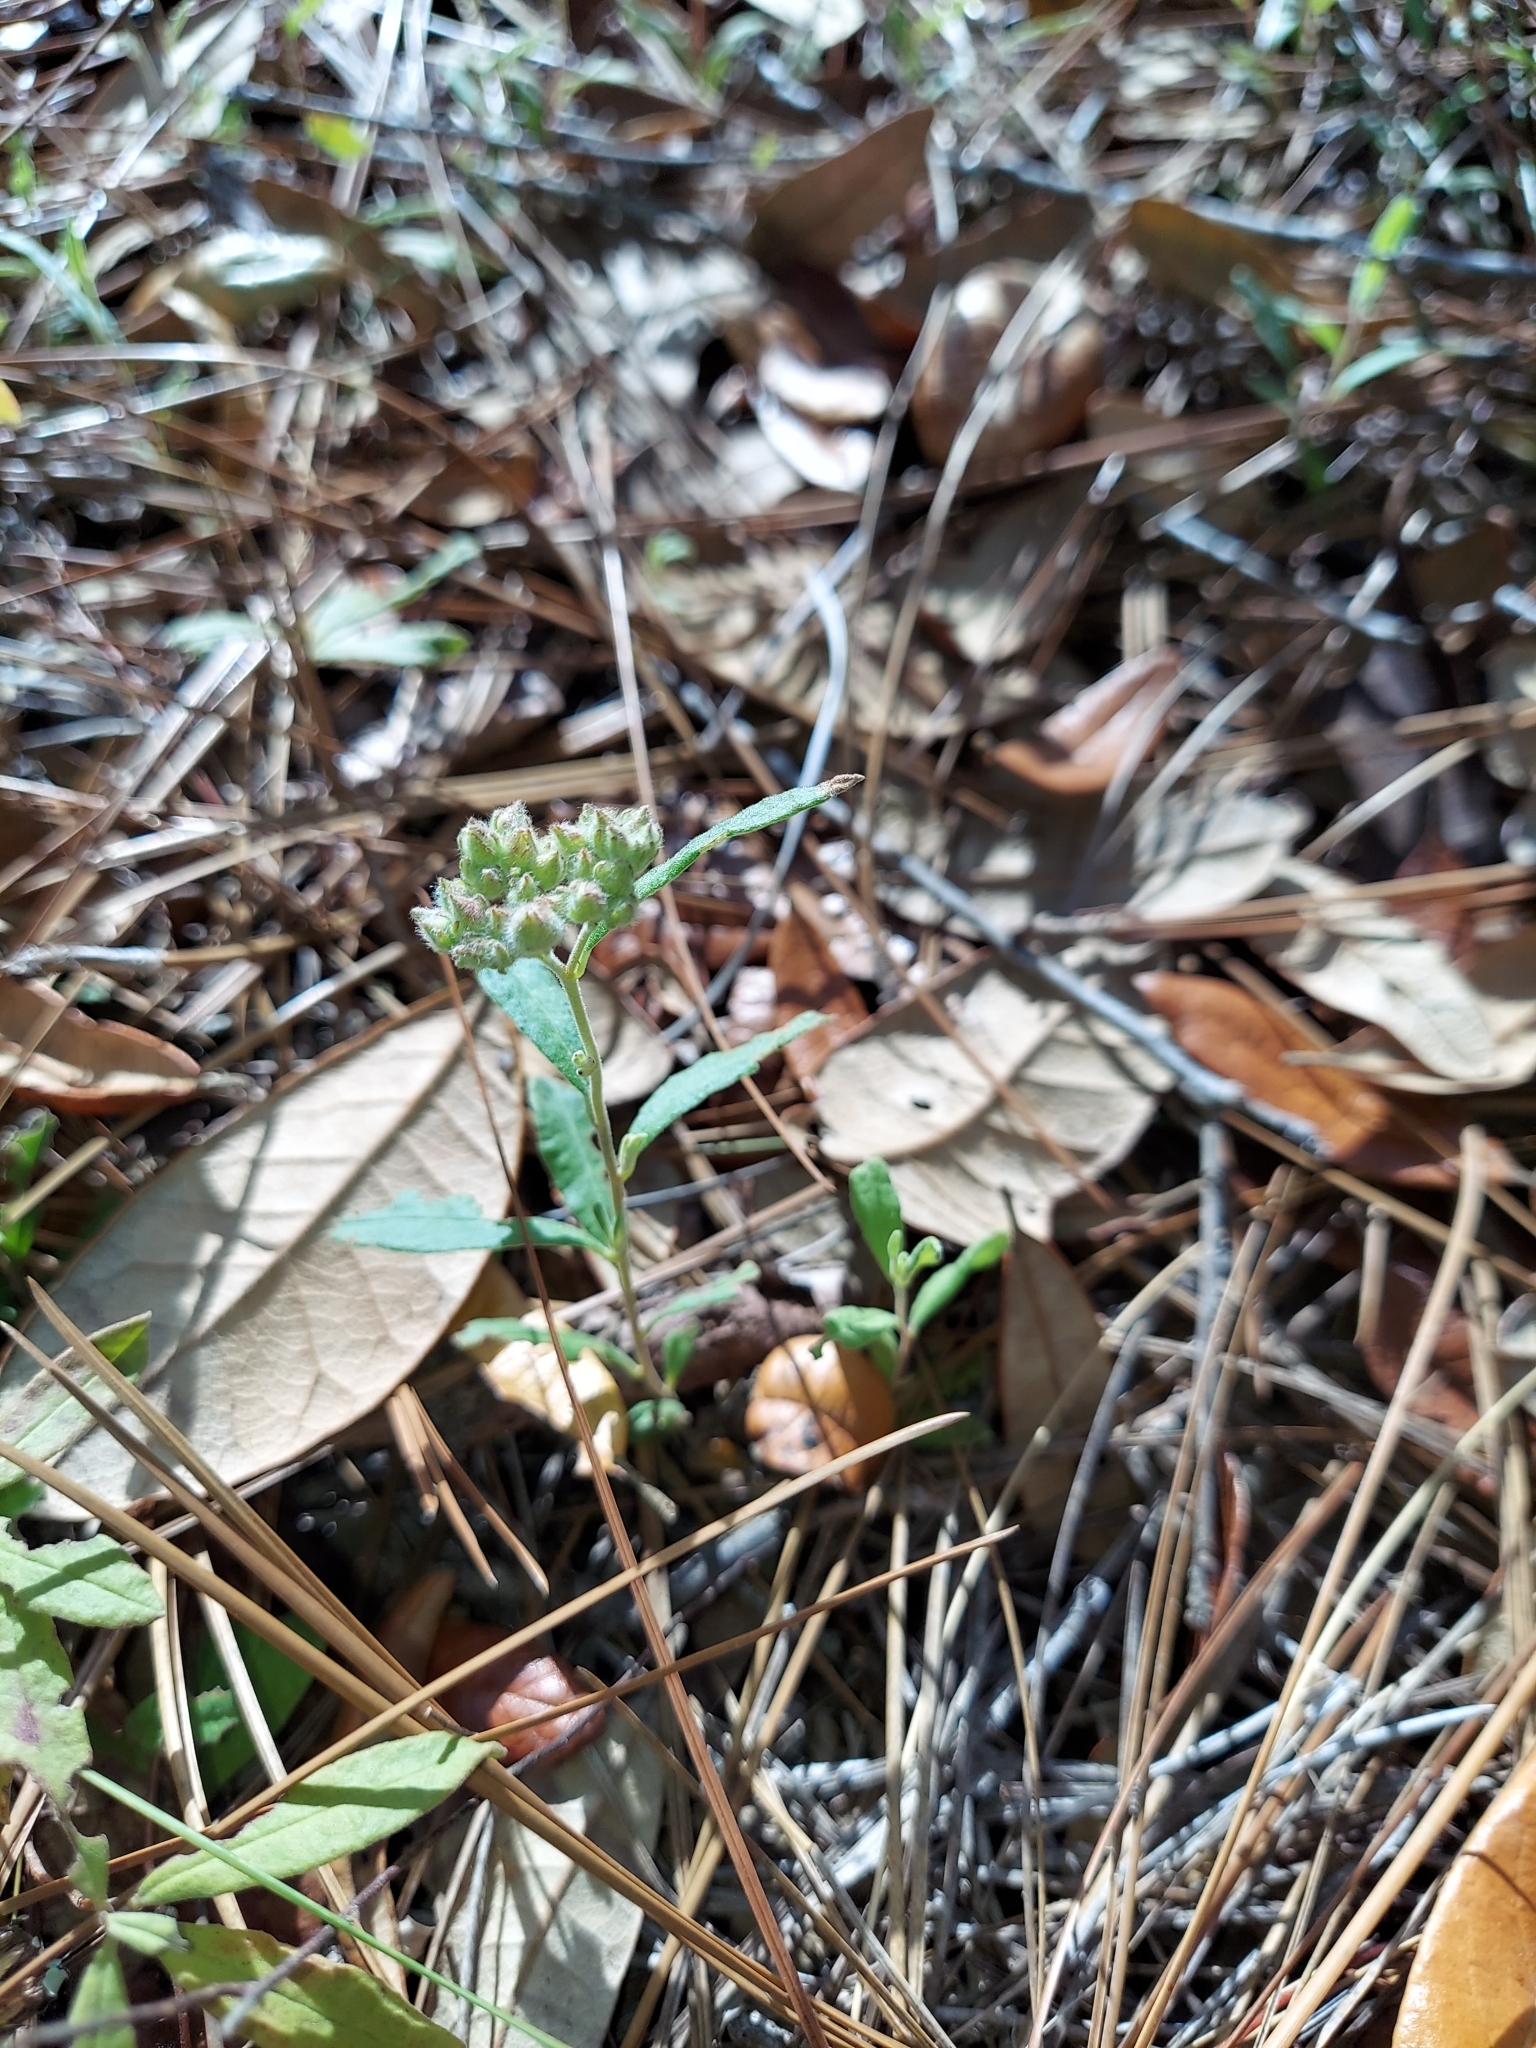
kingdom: Plantae
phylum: Tracheophyta
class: Magnoliopsida
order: Malvales
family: Cistaceae
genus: Crocanthemum
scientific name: Crocanthemum corymbosum
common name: Pinebarren sun-rose
